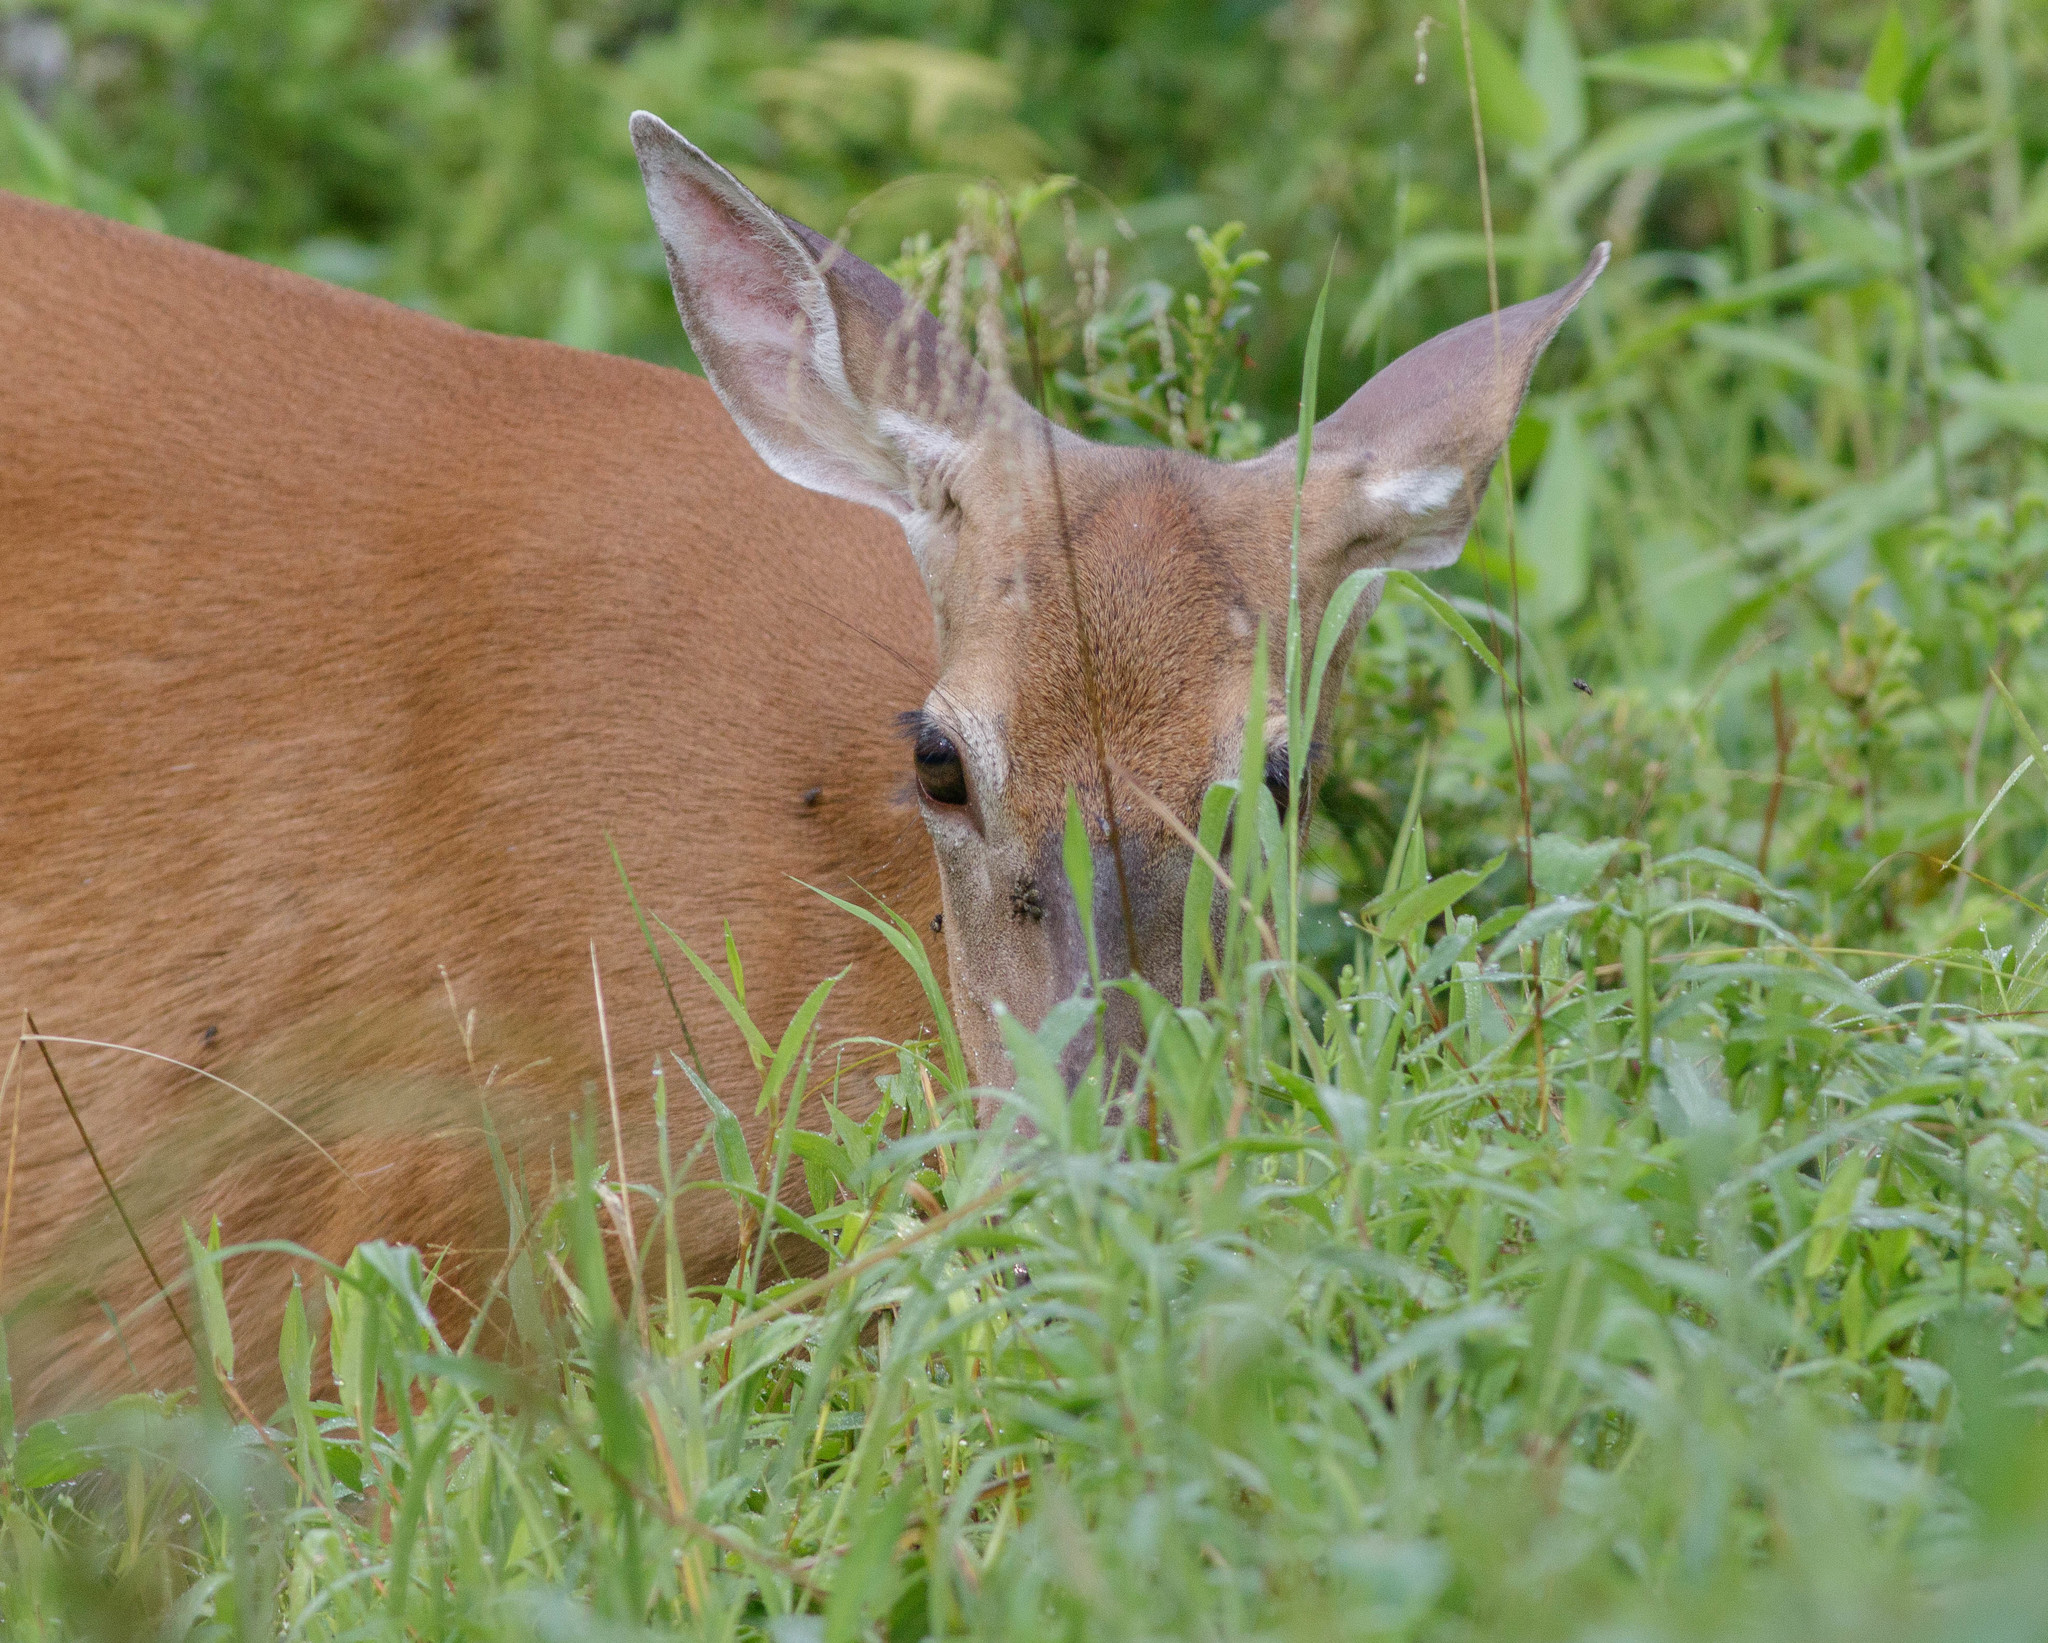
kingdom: Animalia
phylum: Chordata
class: Mammalia
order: Artiodactyla
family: Cervidae
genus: Odocoileus
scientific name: Odocoileus virginianus
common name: White-tailed deer
